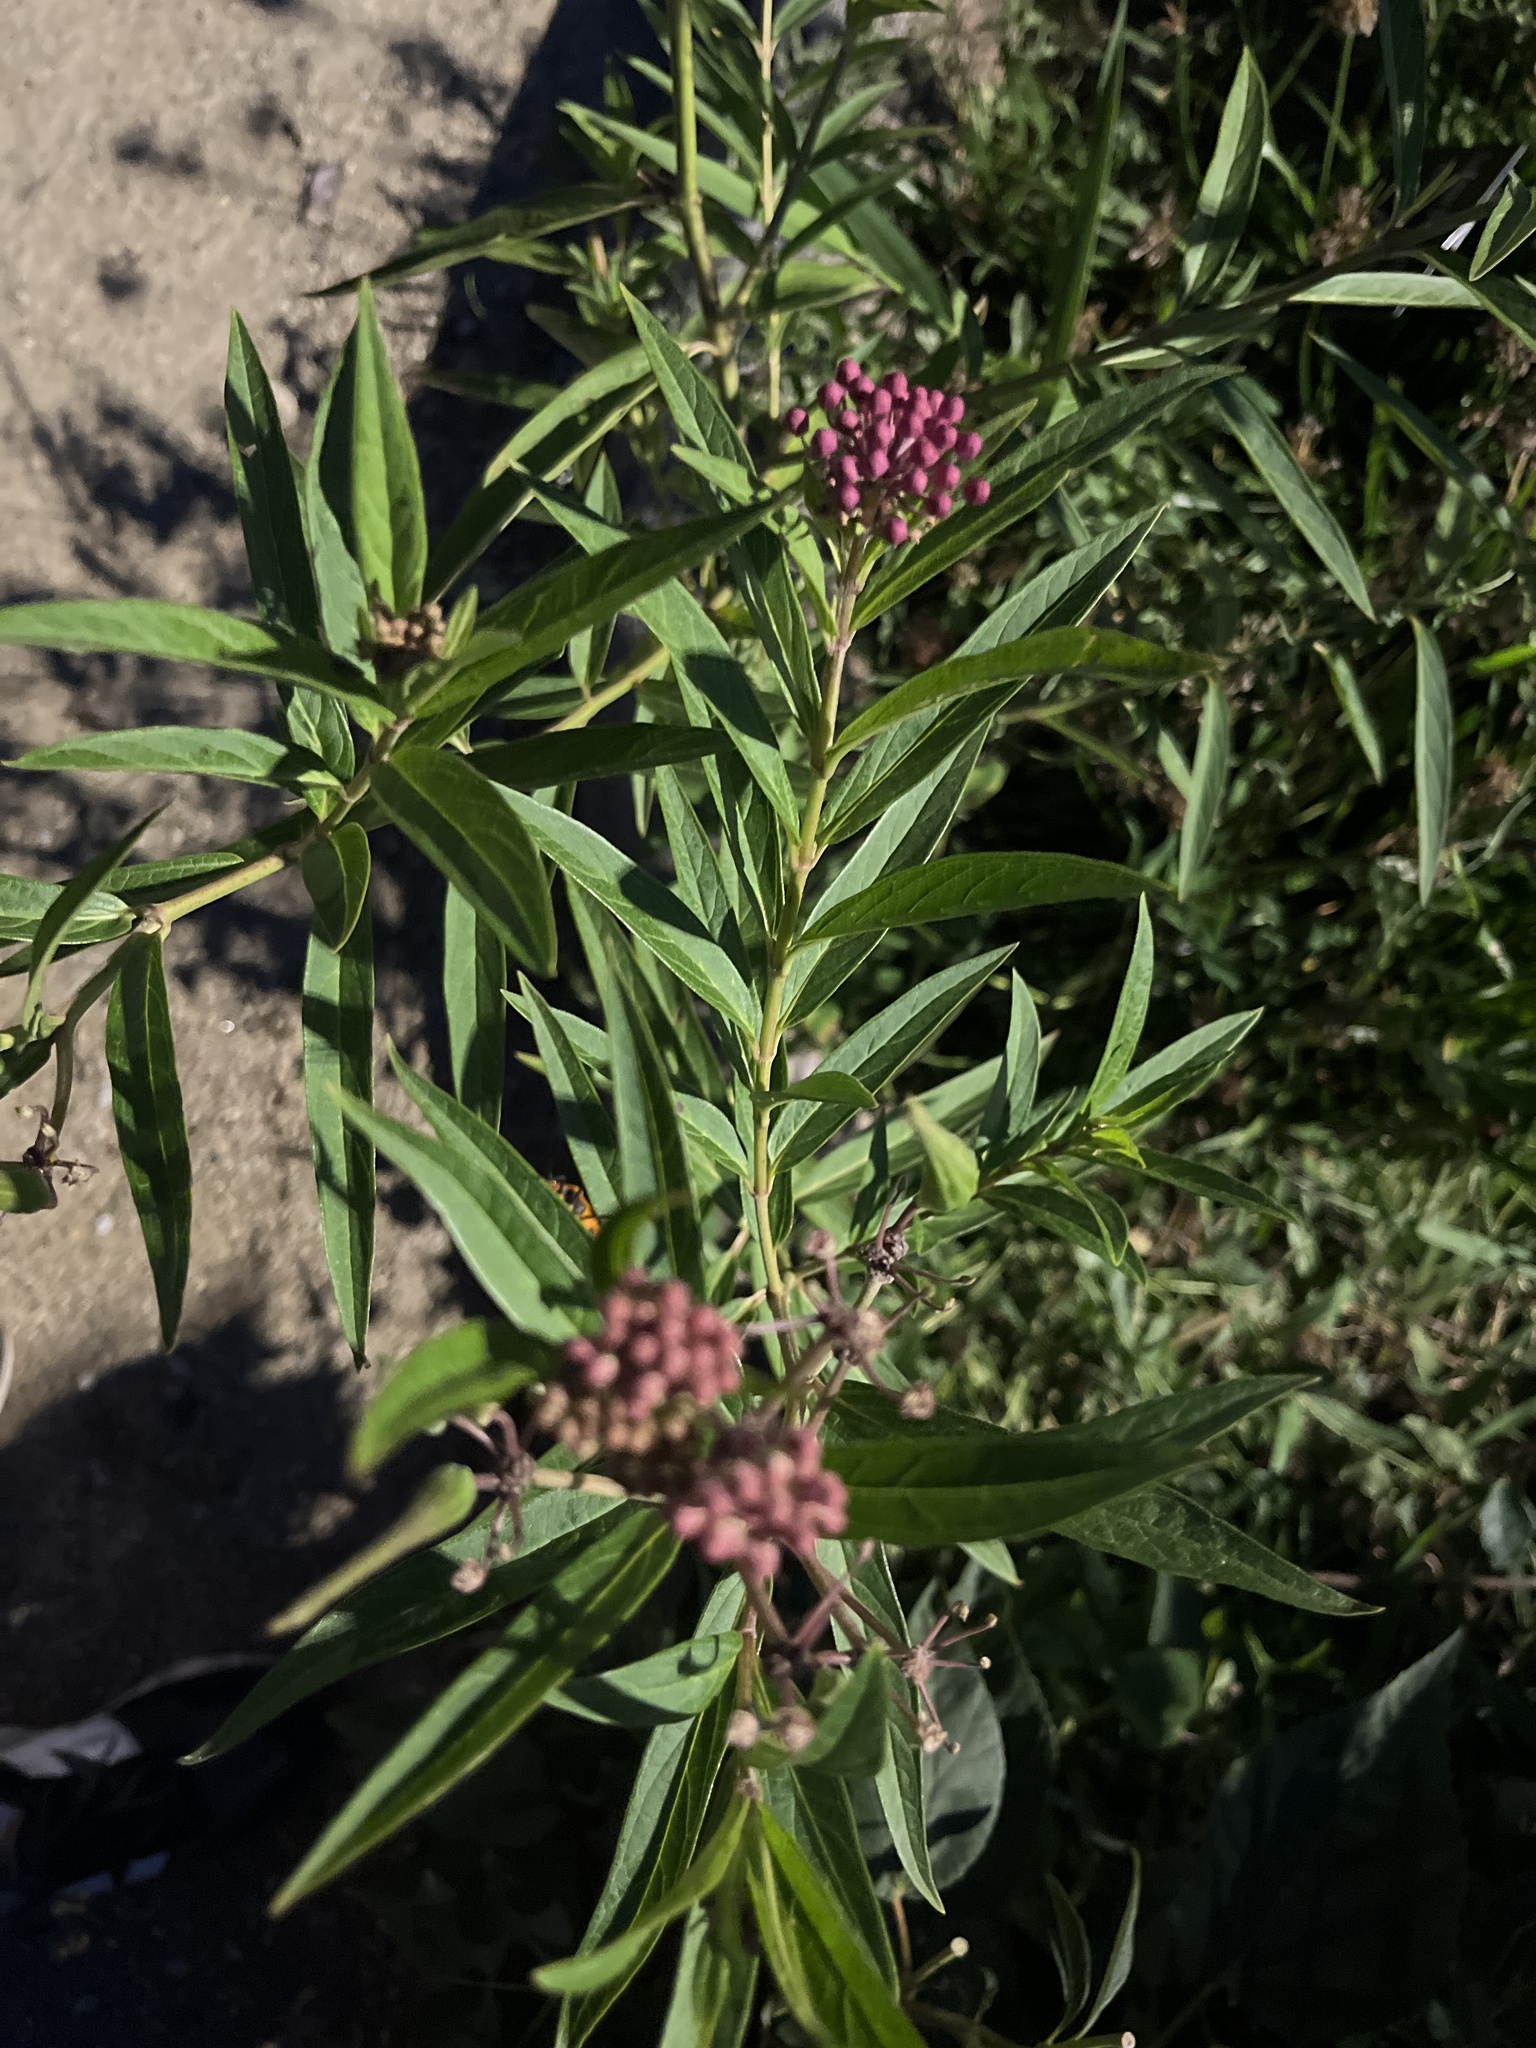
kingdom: Plantae
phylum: Tracheophyta
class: Magnoliopsida
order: Gentianales
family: Apocynaceae
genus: Asclepias
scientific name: Asclepias incarnata
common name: Swamp milkweed
